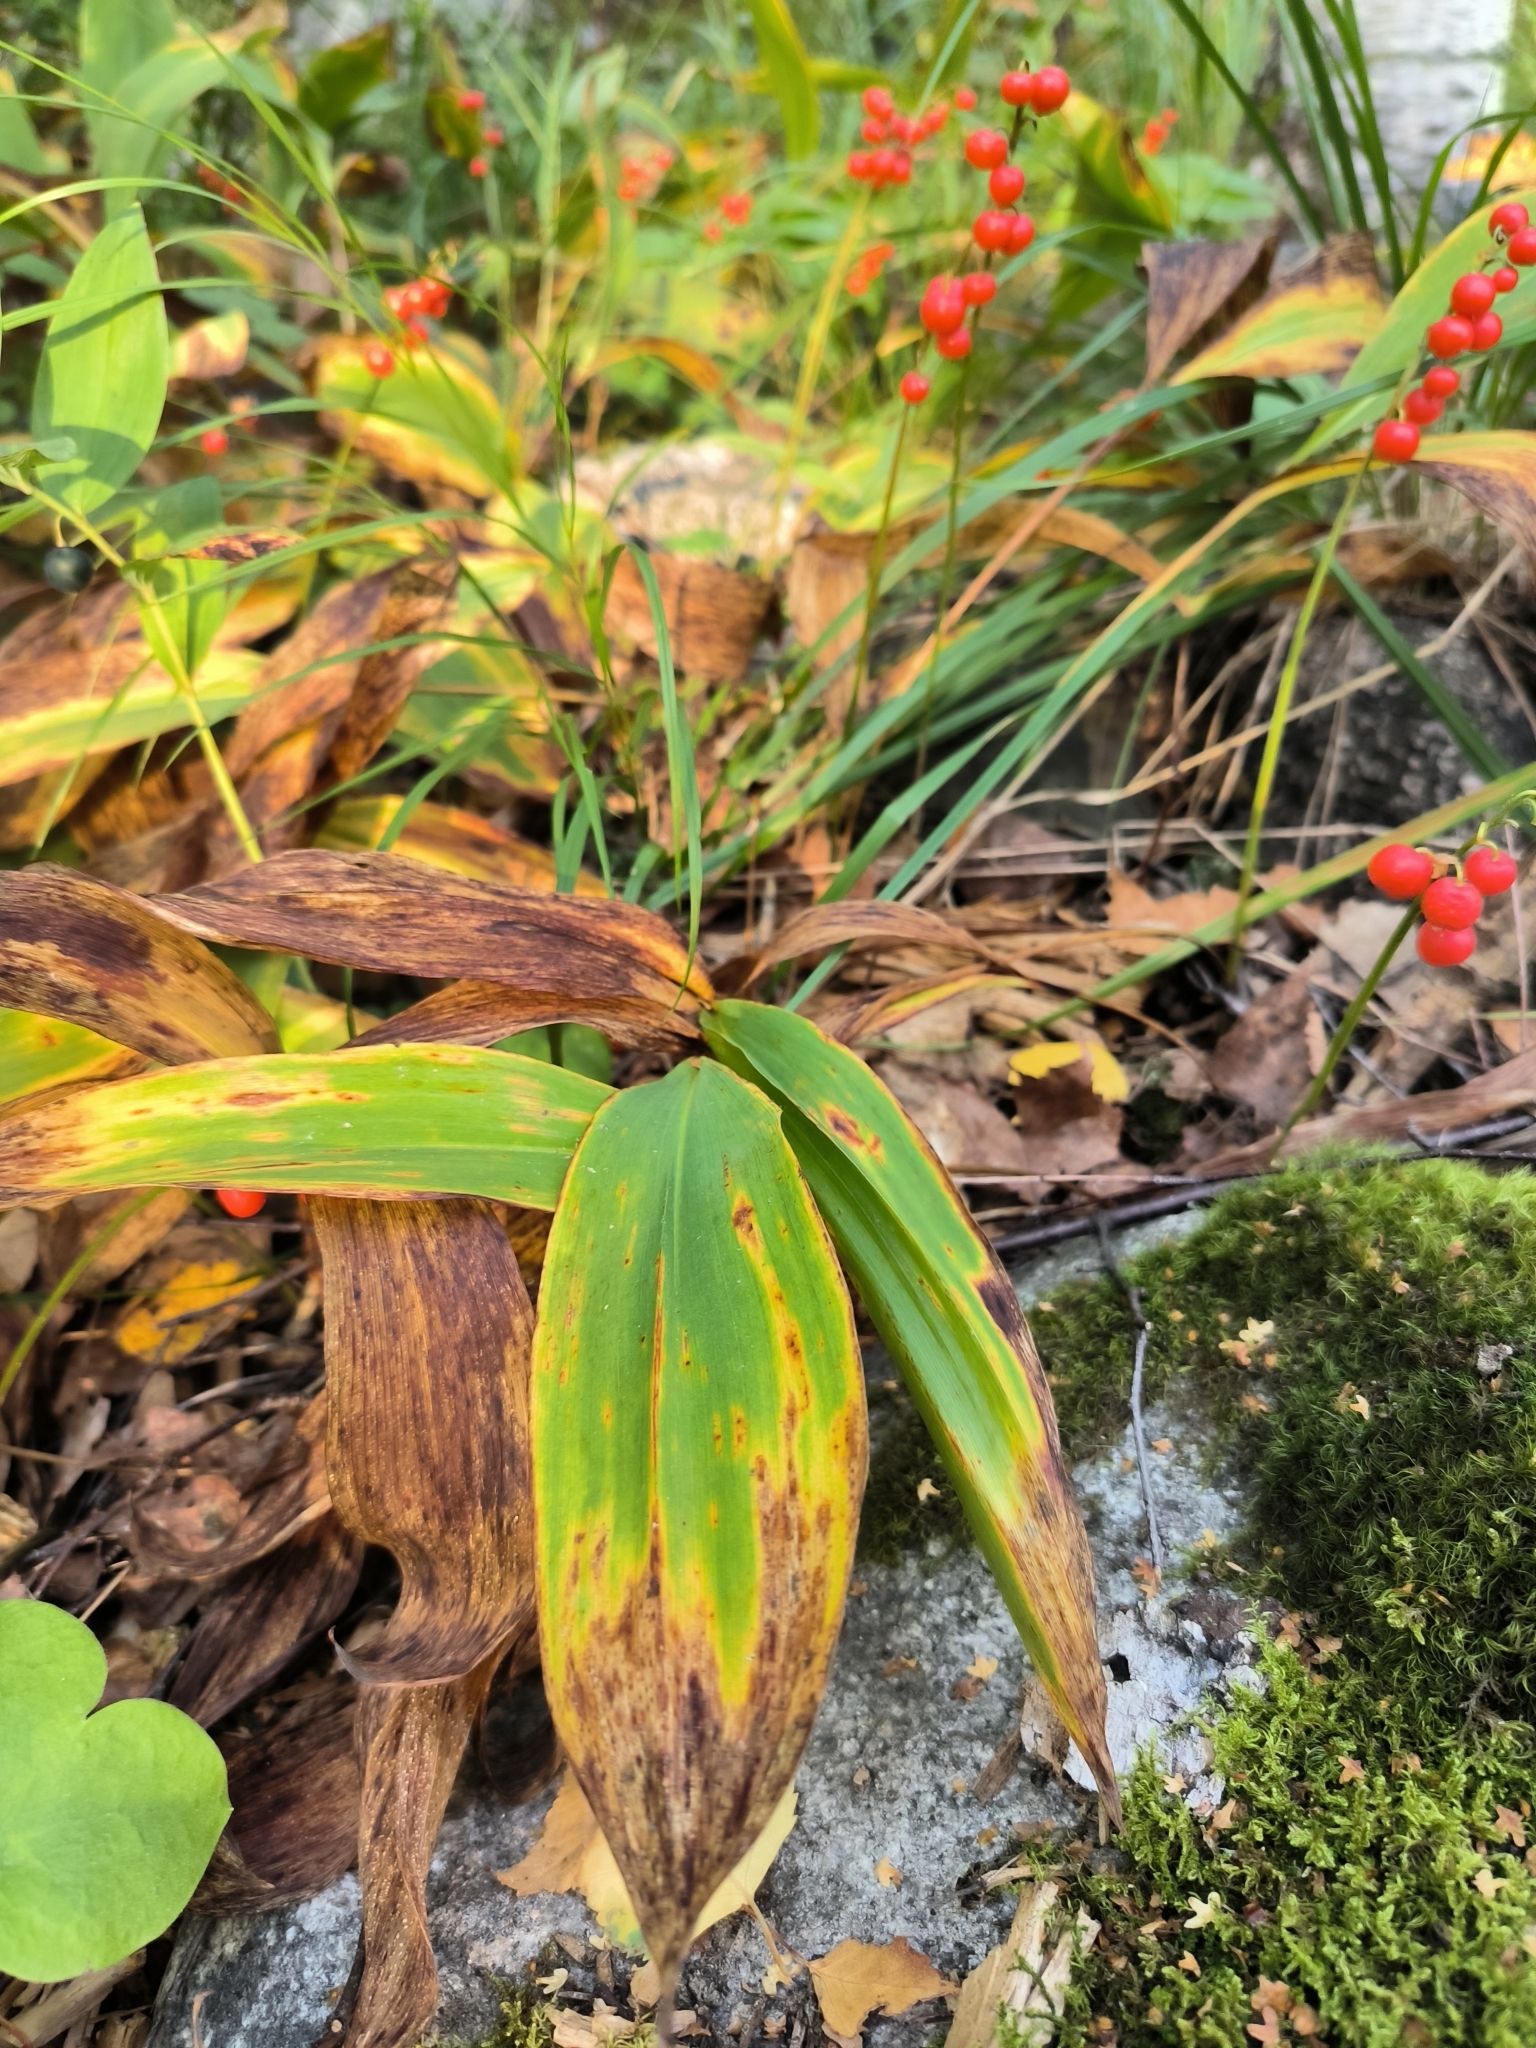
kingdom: Plantae
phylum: Tracheophyta
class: Liliopsida
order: Asparagales
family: Asparagaceae
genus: Convallaria
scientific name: Convallaria majalis
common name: Lily-of-the-valley
